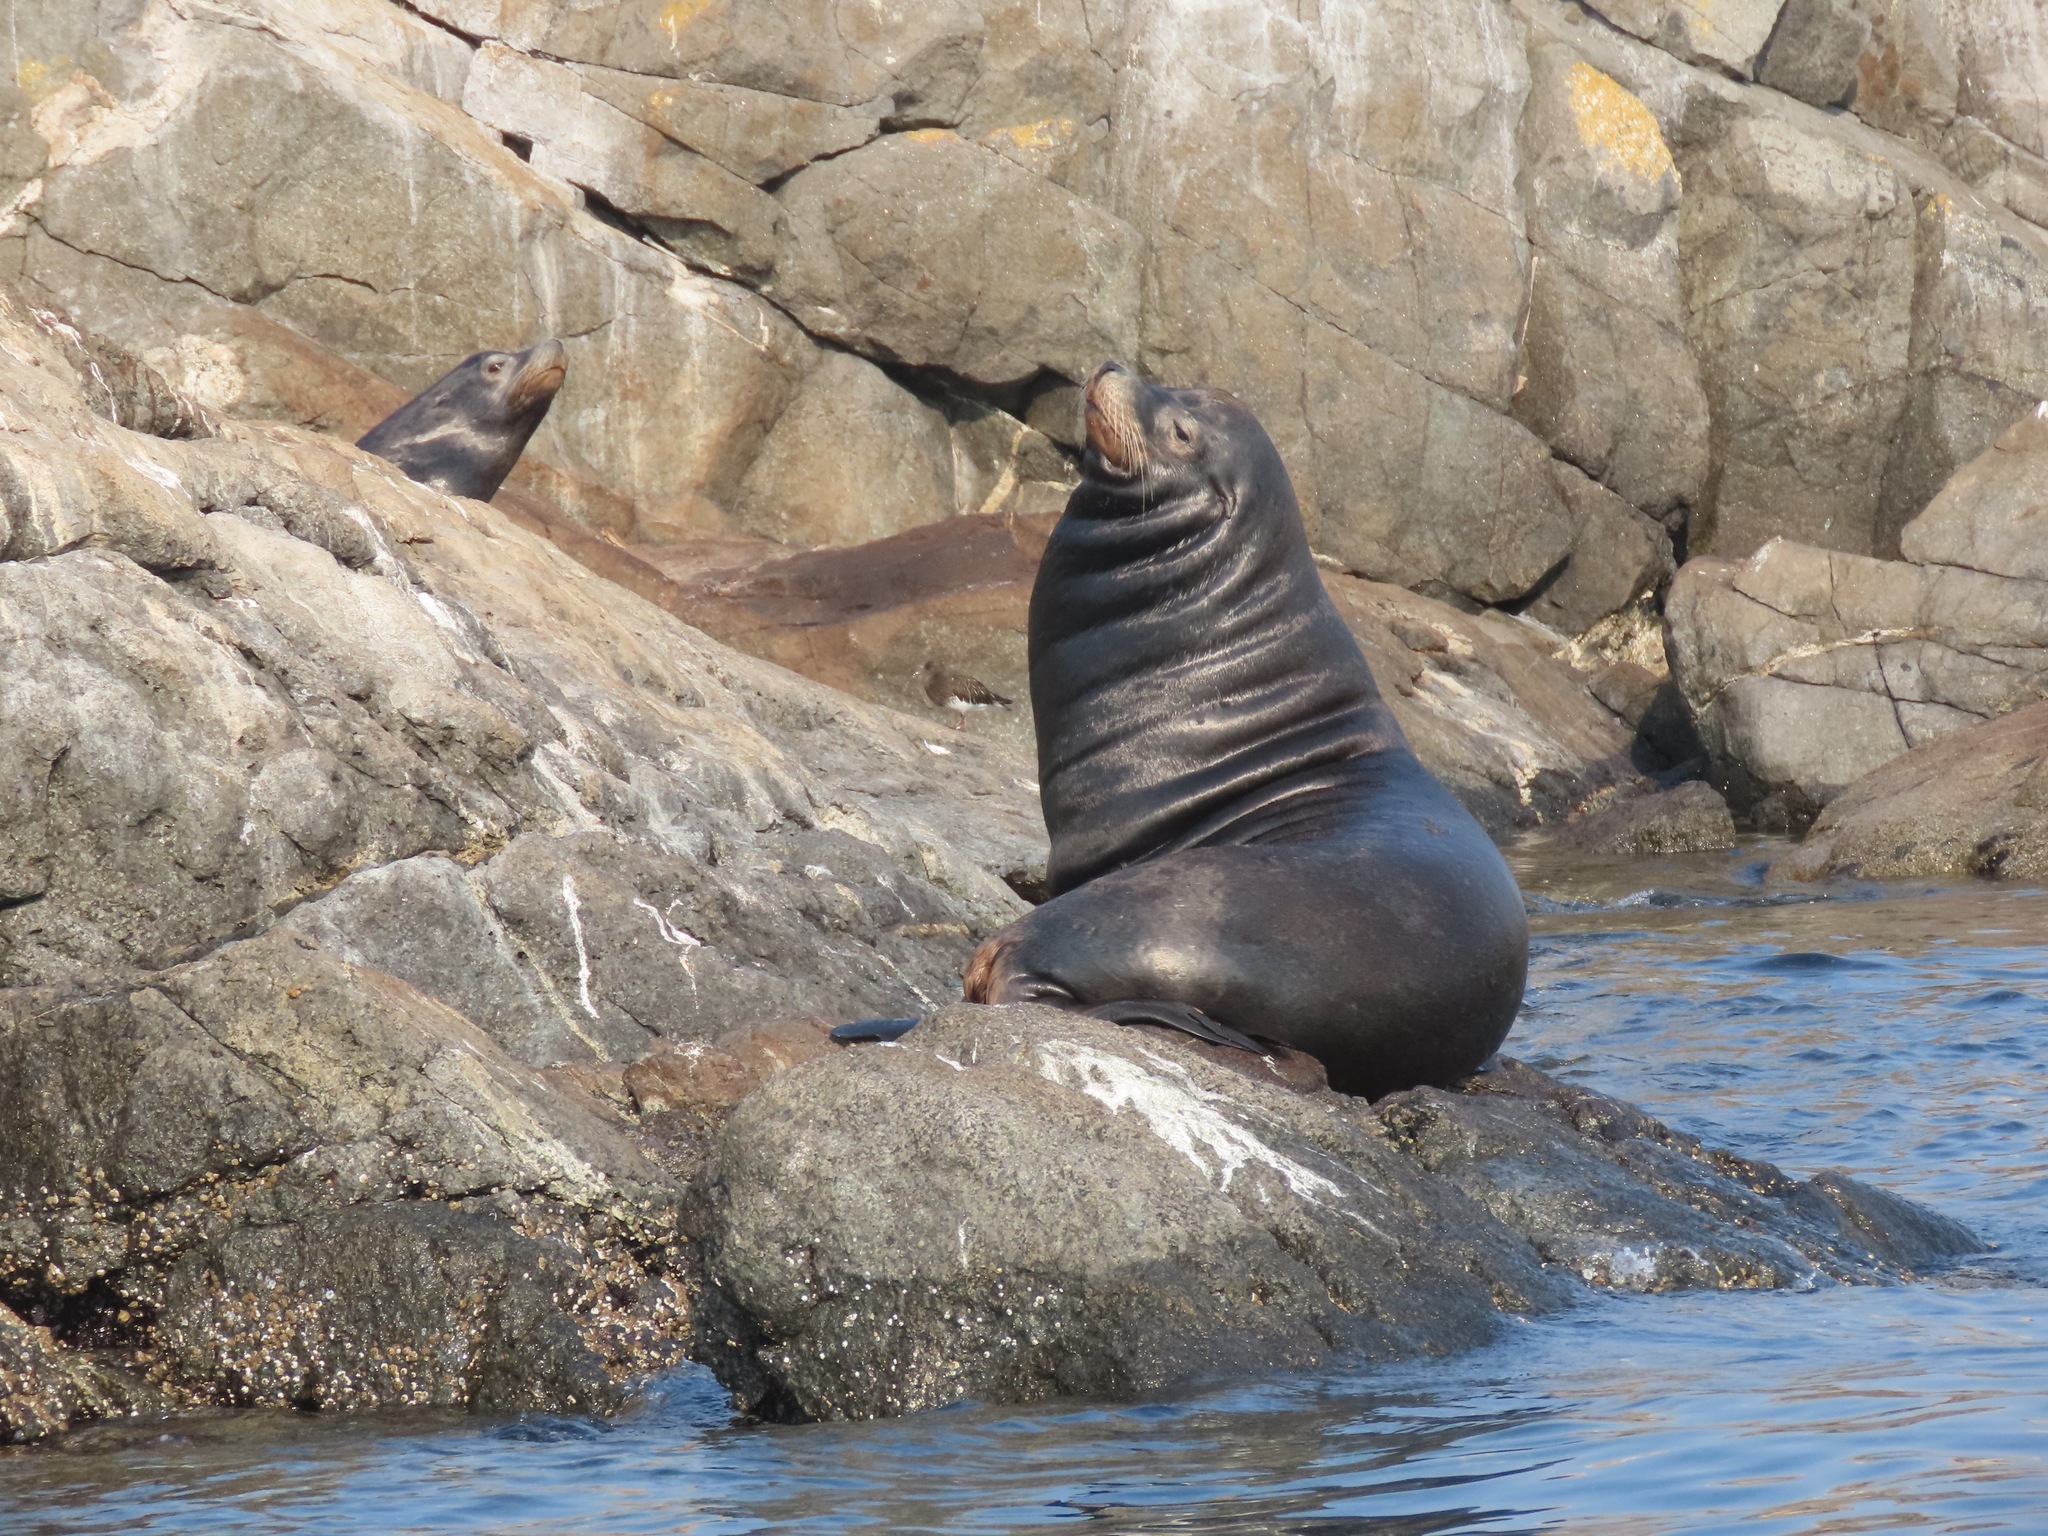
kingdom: Animalia
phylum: Chordata
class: Mammalia
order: Carnivora
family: Otariidae
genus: Zalophus
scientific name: Zalophus californianus
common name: California sea lion
